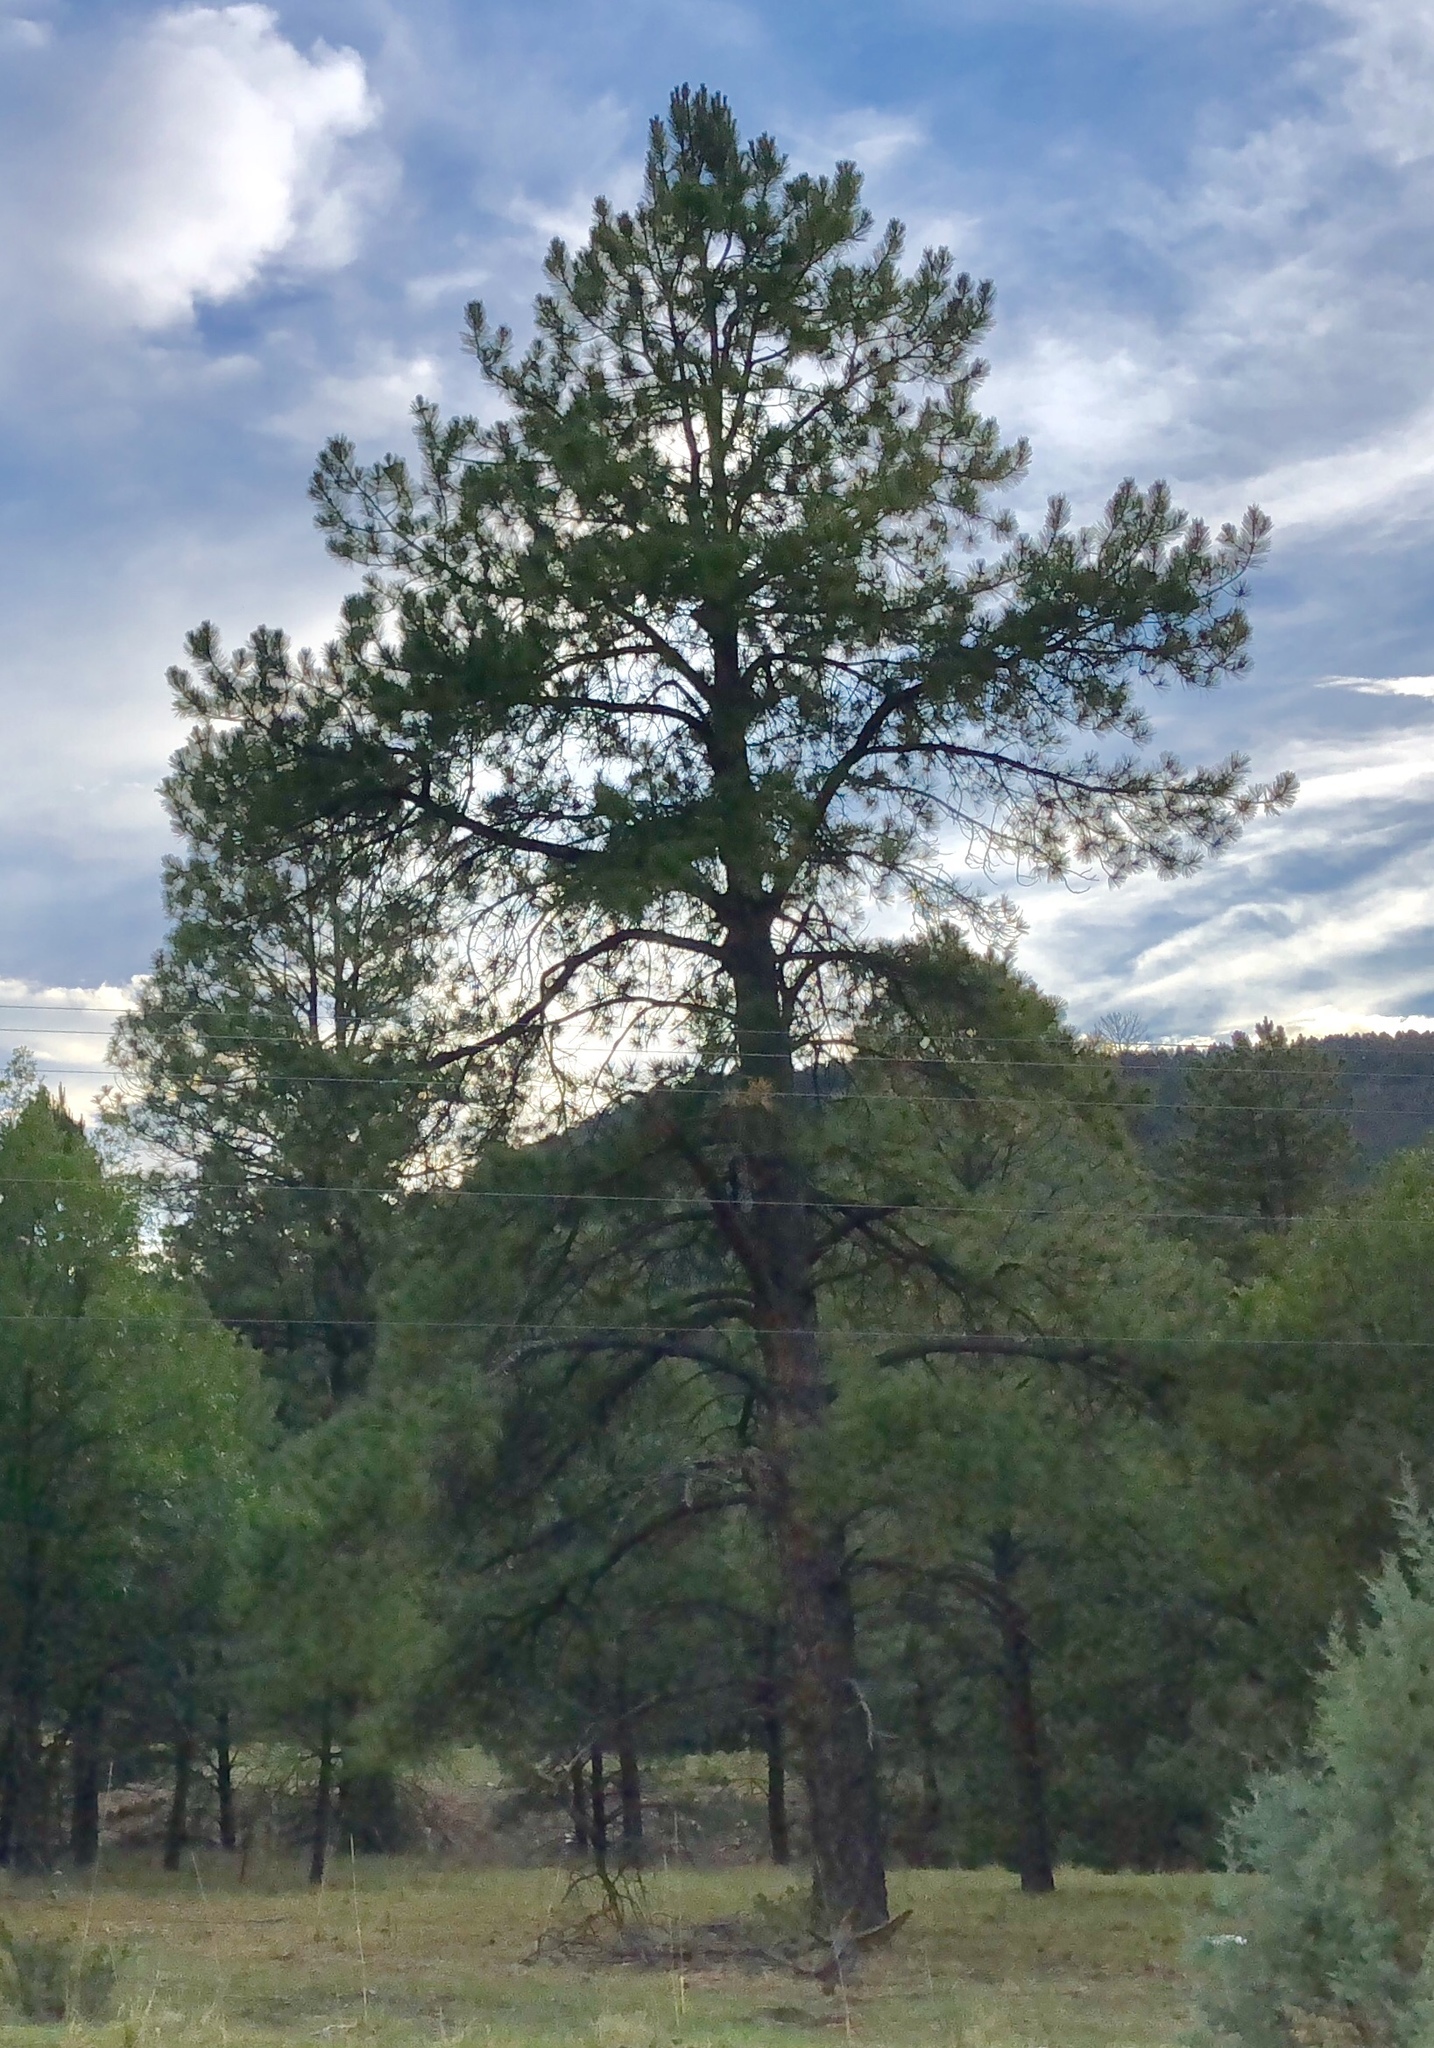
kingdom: Plantae
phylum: Tracheophyta
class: Pinopsida
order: Pinales
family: Pinaceae
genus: Pinus
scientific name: Pinus ponderosa
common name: Western yellow-pine
